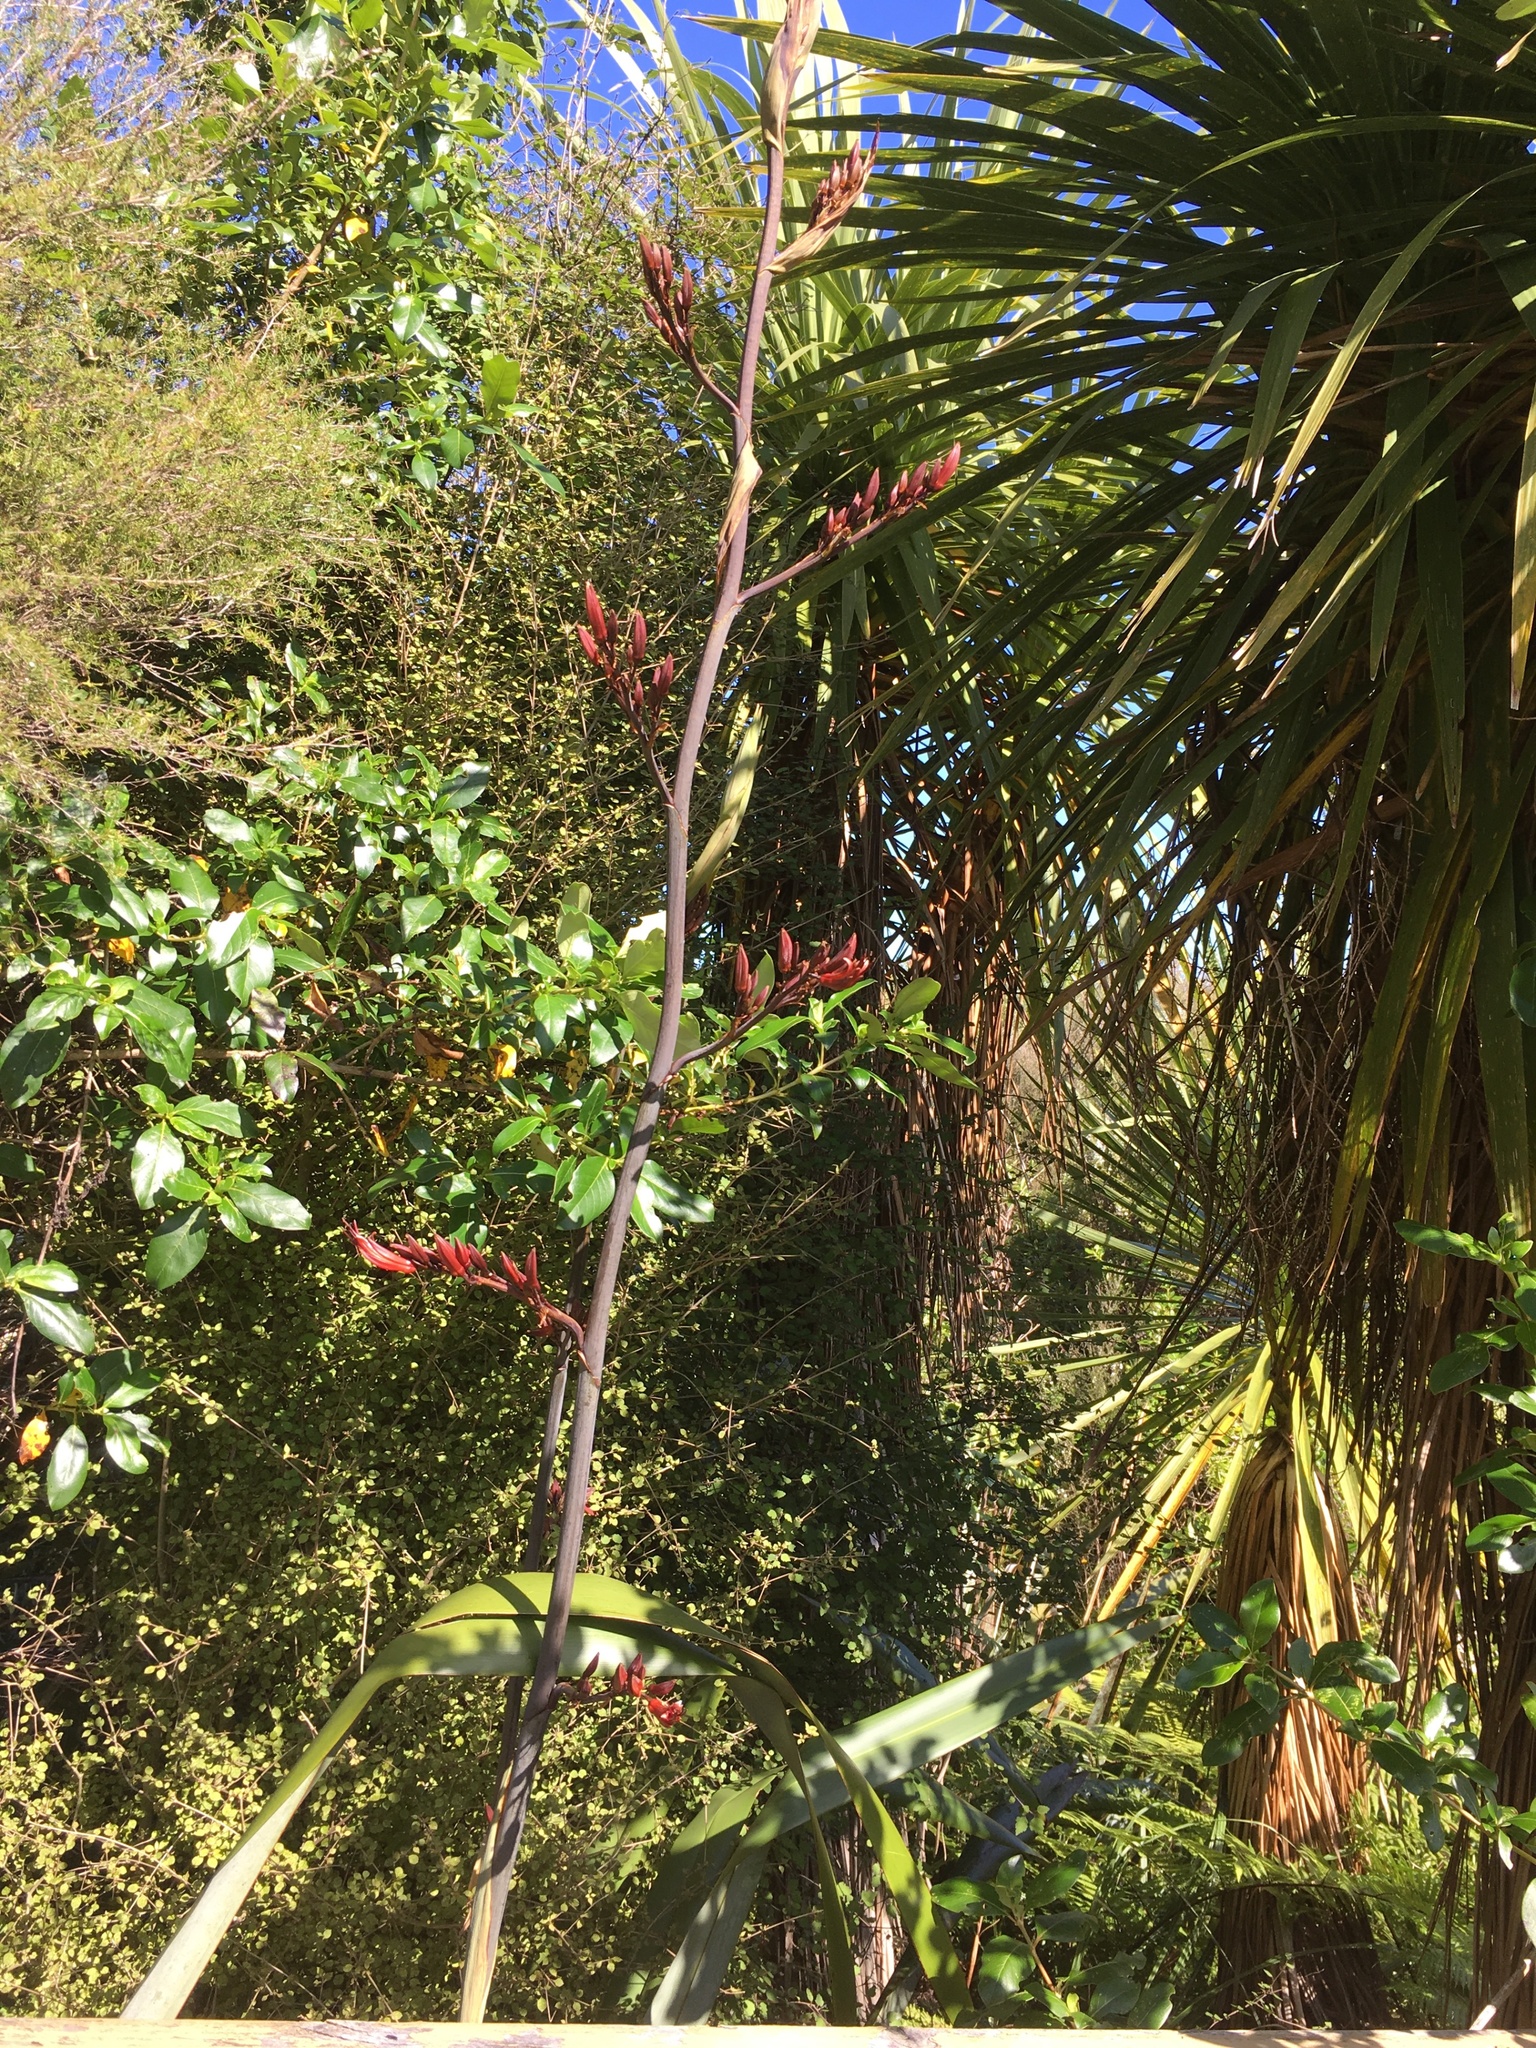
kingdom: Plantae
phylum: Tracheophyta
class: Liliopsida
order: Asparagales
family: Asphodelaceae
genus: Phormium
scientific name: Phormium tenax
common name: New zealand flax
